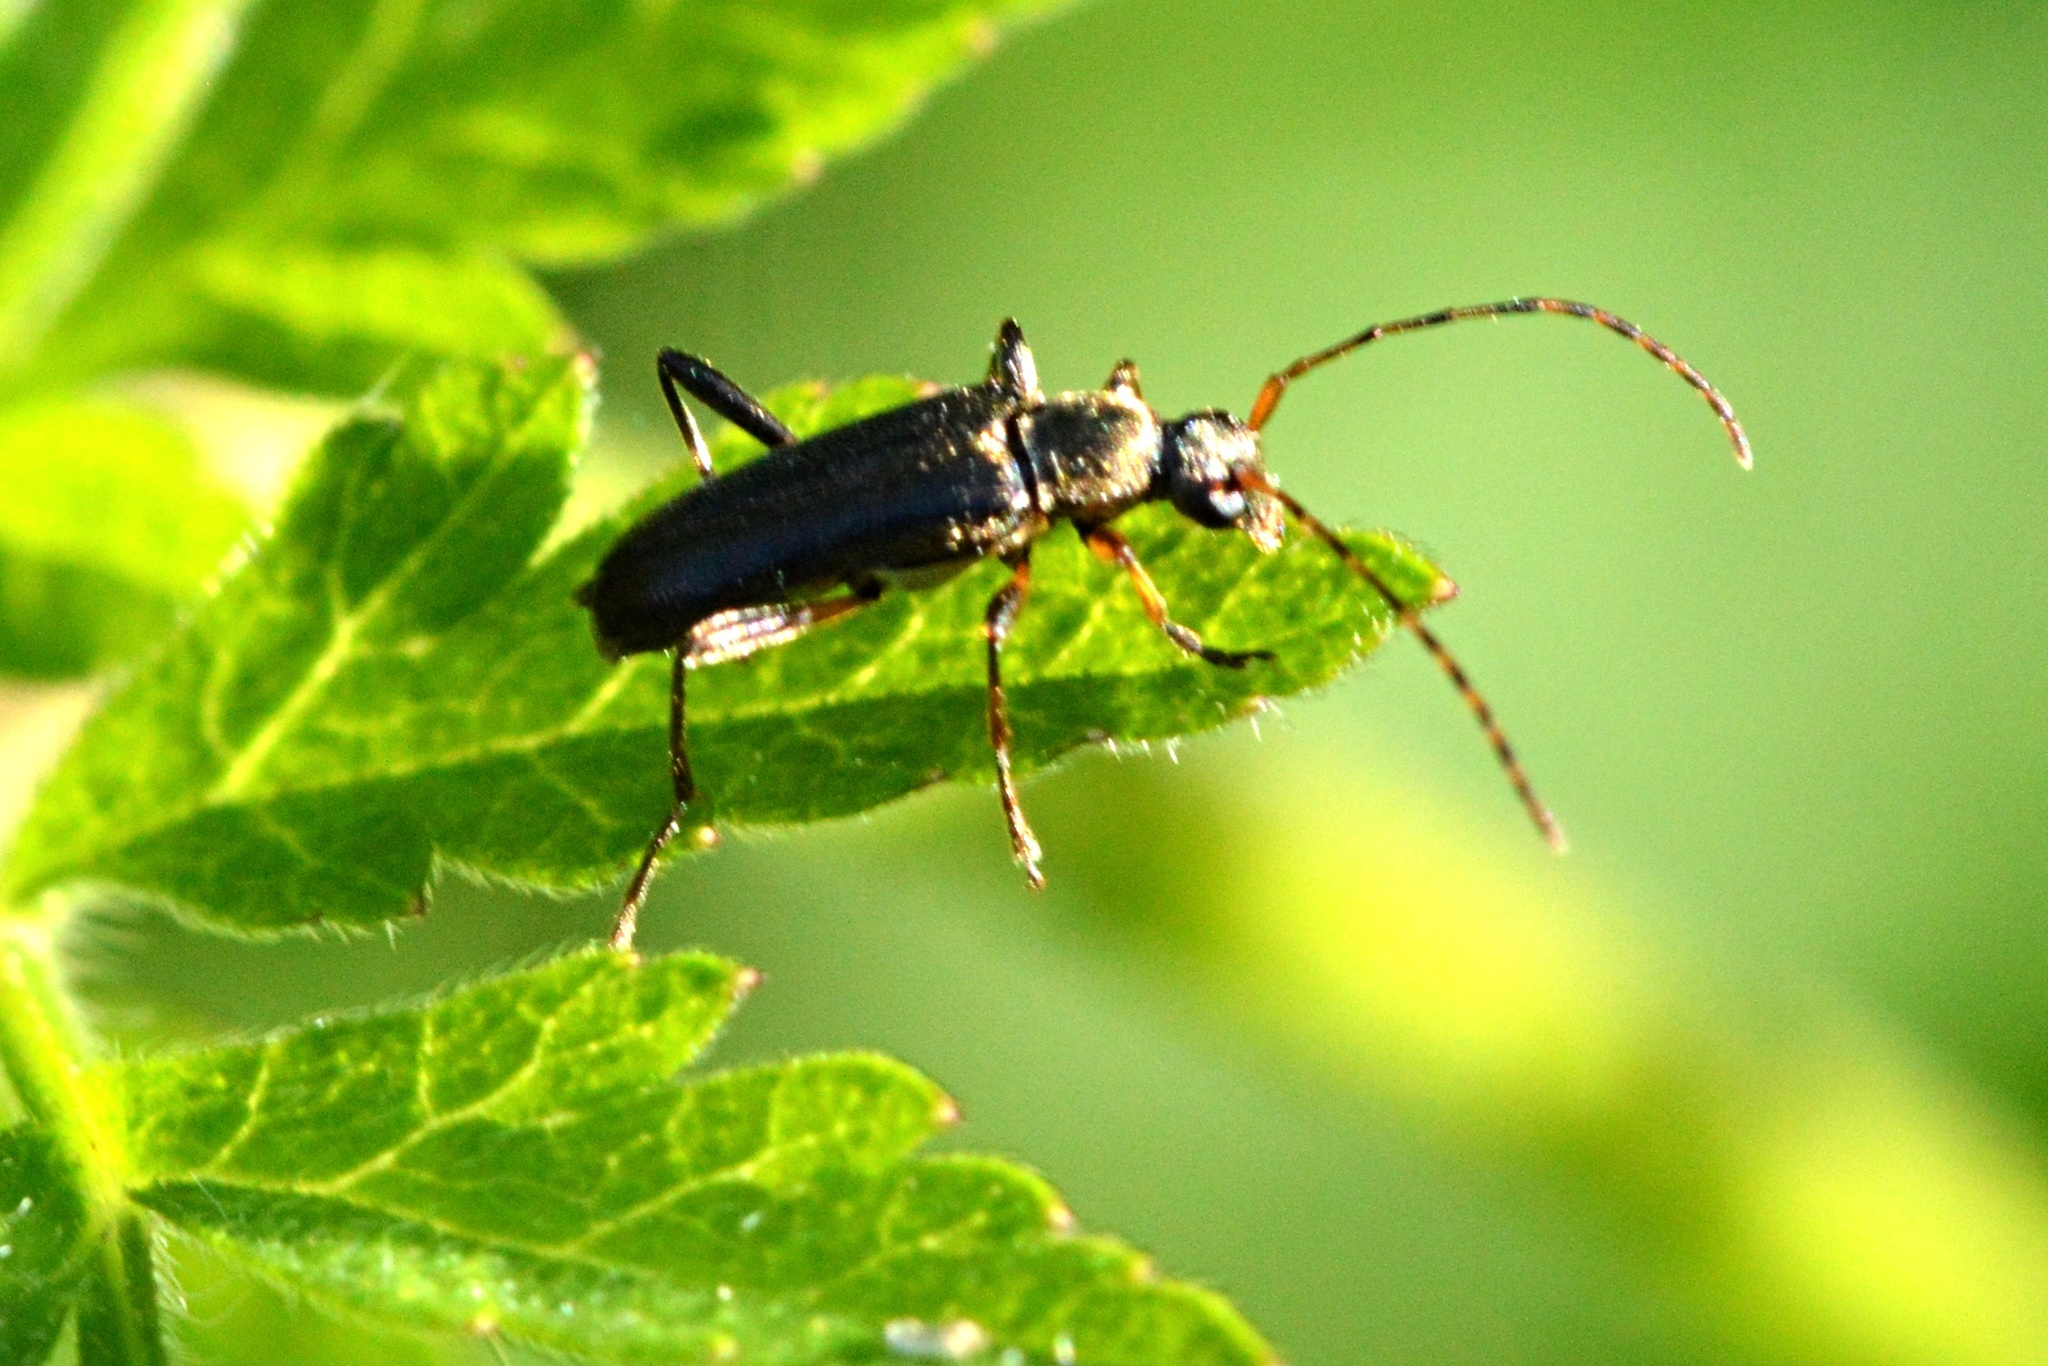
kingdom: Animalia
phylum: Arthropoda
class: Insecta
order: Coleoptera
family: Cerambycidae
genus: Grammoptera
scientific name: Grammoptera ruficornis
